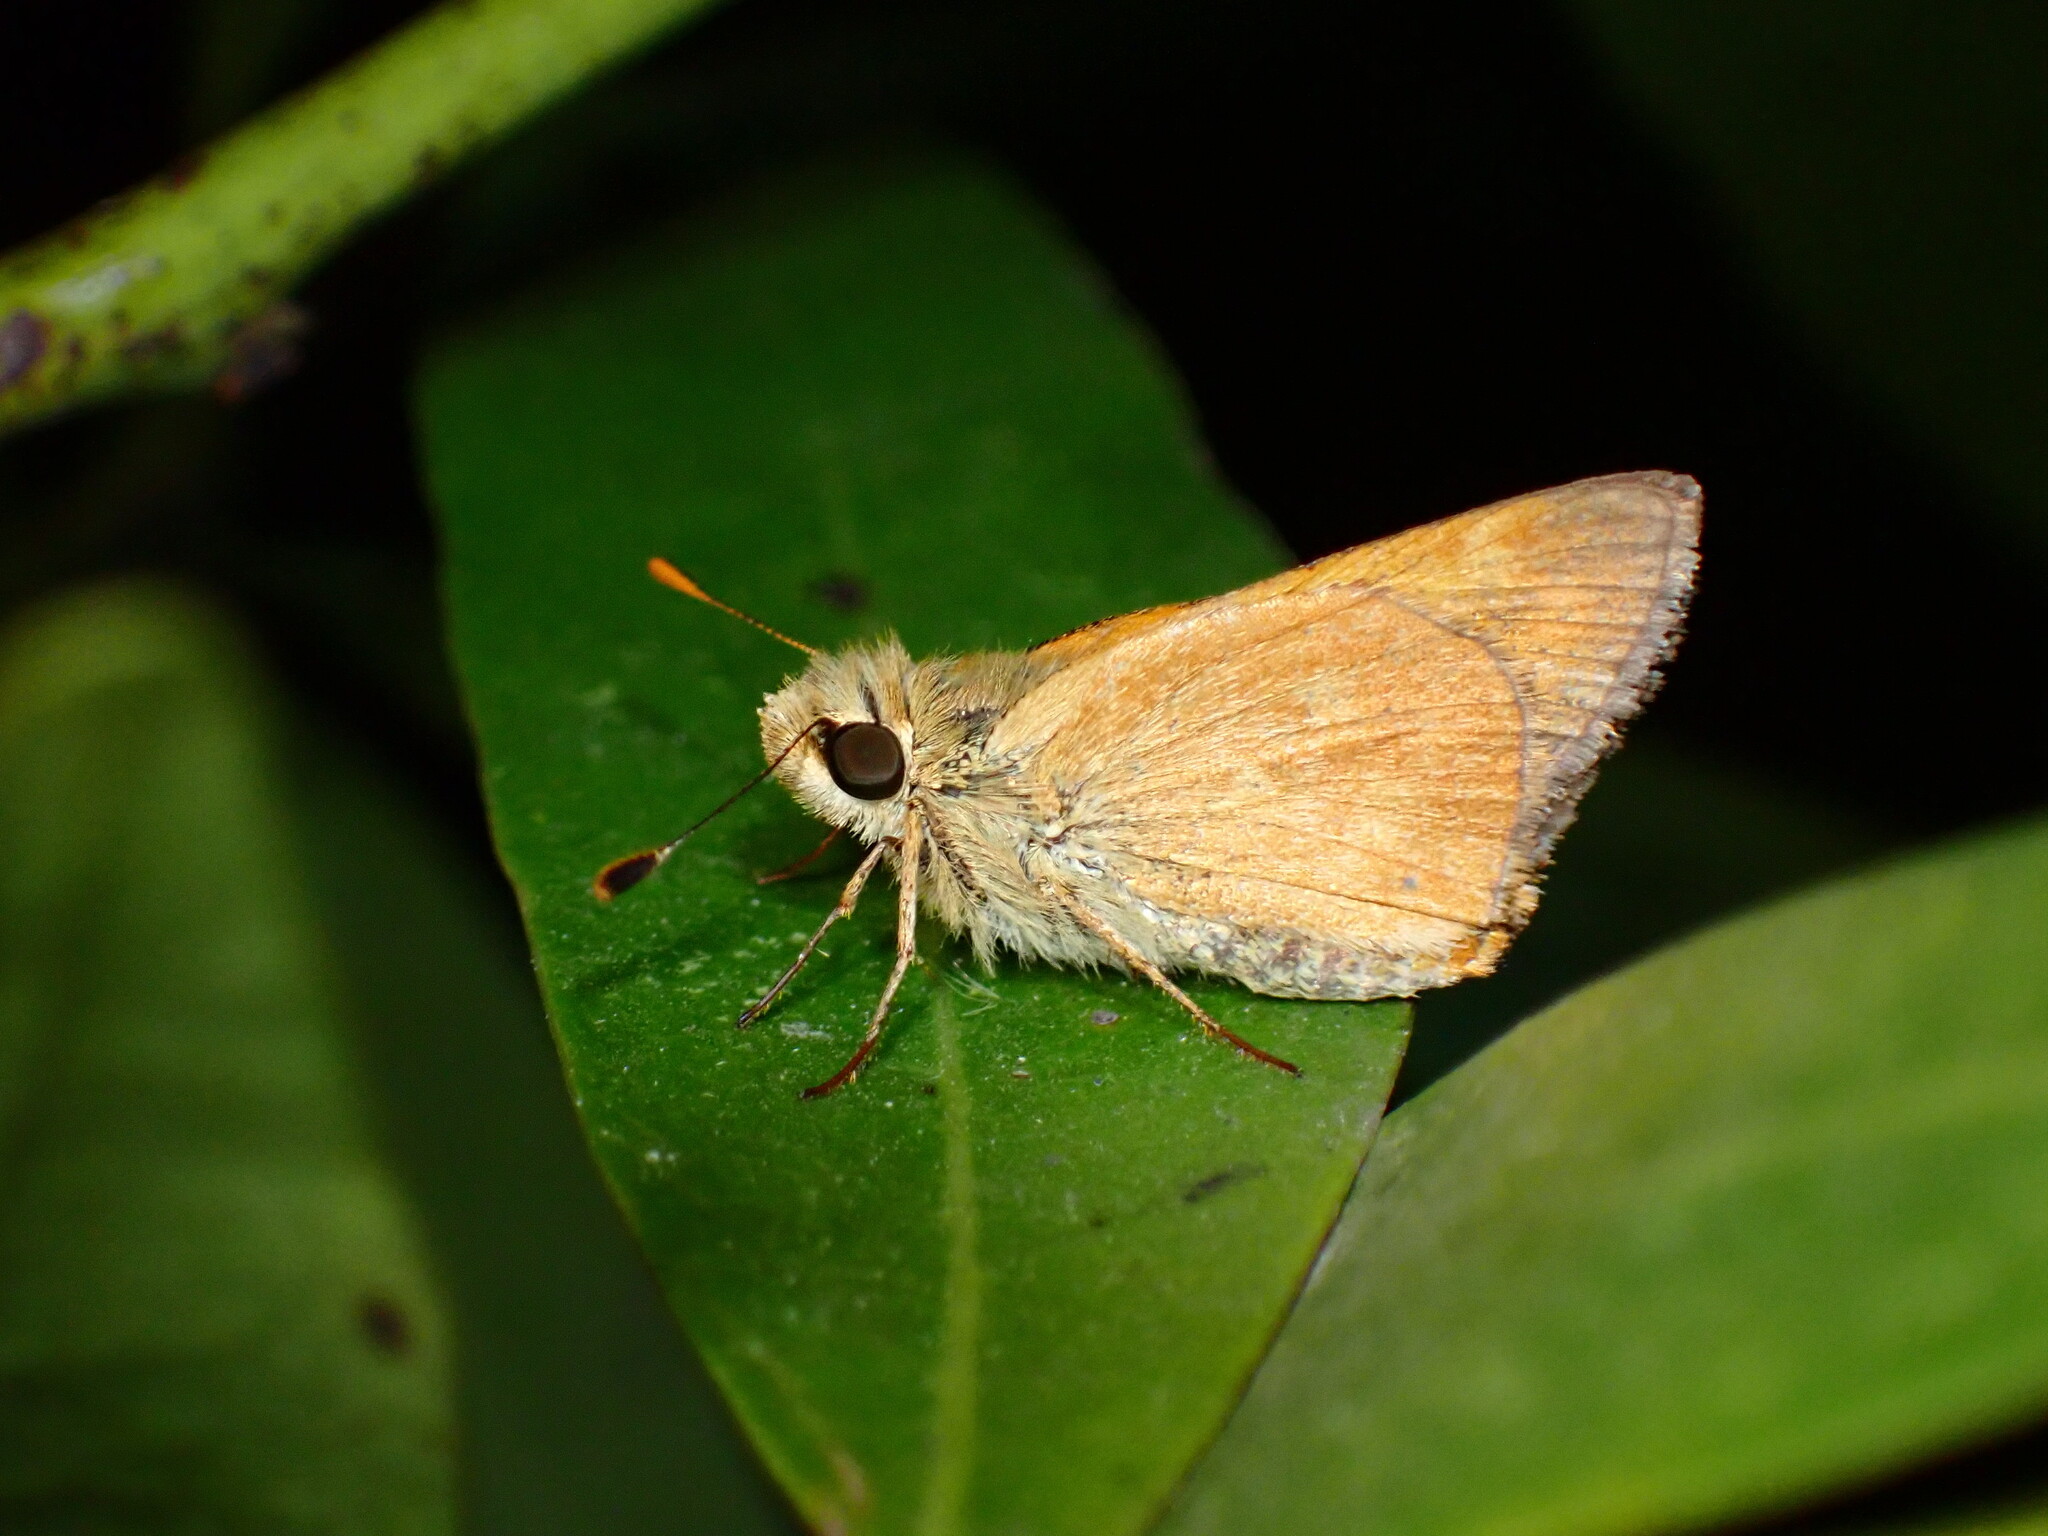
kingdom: Animalia
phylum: Arthropoda
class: Insecta
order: Lepidoptera
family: Hesperiidae
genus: Ochlodes
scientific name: Ochlodes sylvanoides
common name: Woodland skipper
